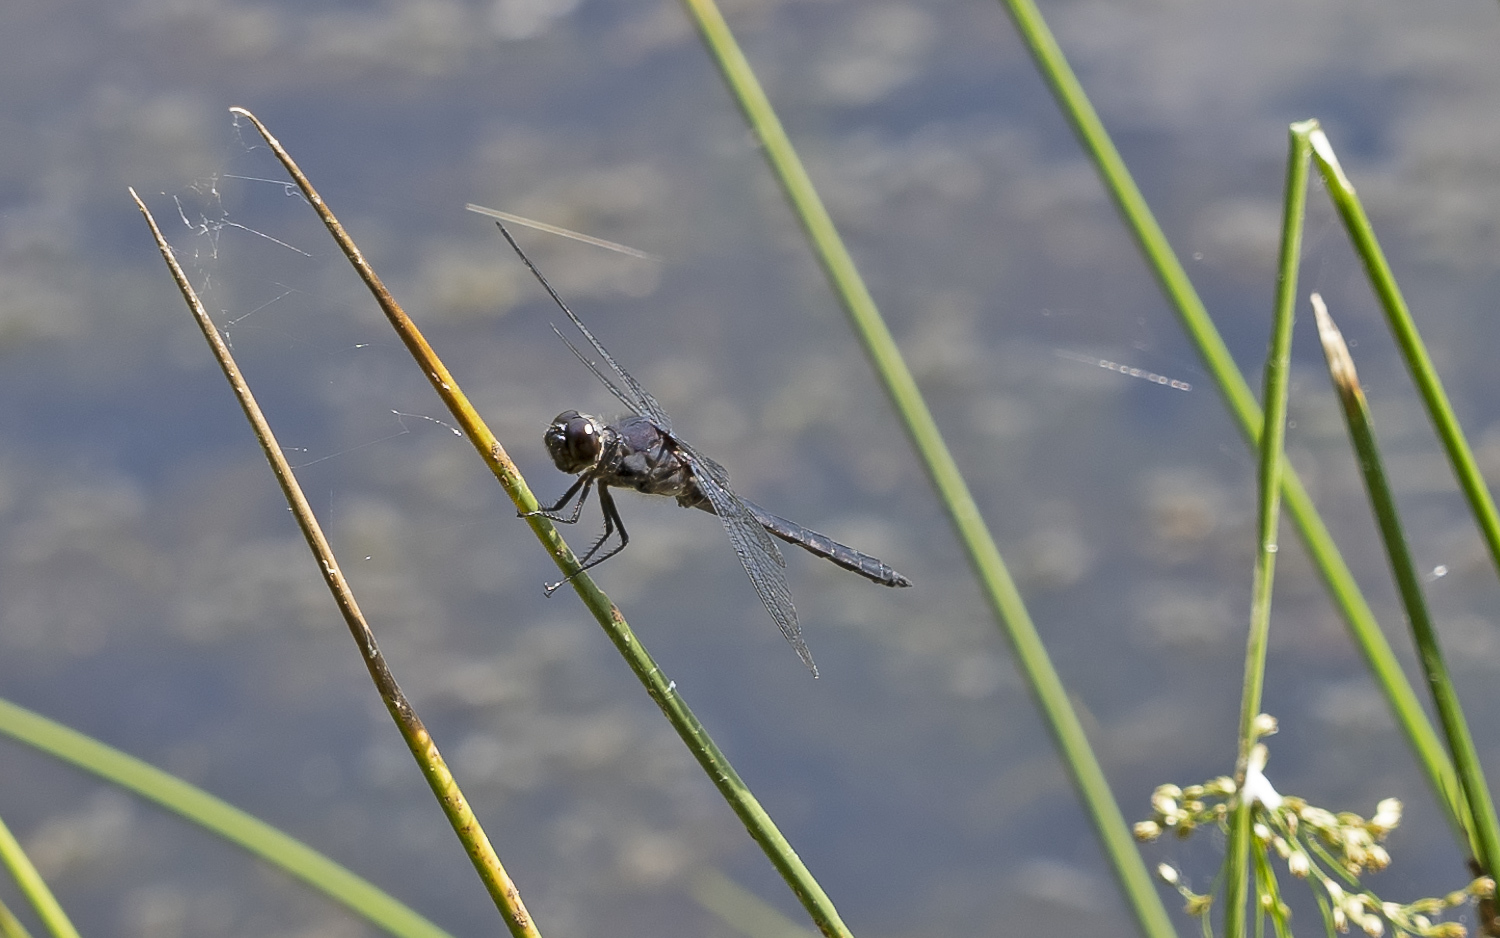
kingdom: Animalia
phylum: Arthropoda
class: Insecta
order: Odonata
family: Libellulidae
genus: Libellula
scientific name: Libellula incesta
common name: Slaty skimmer
